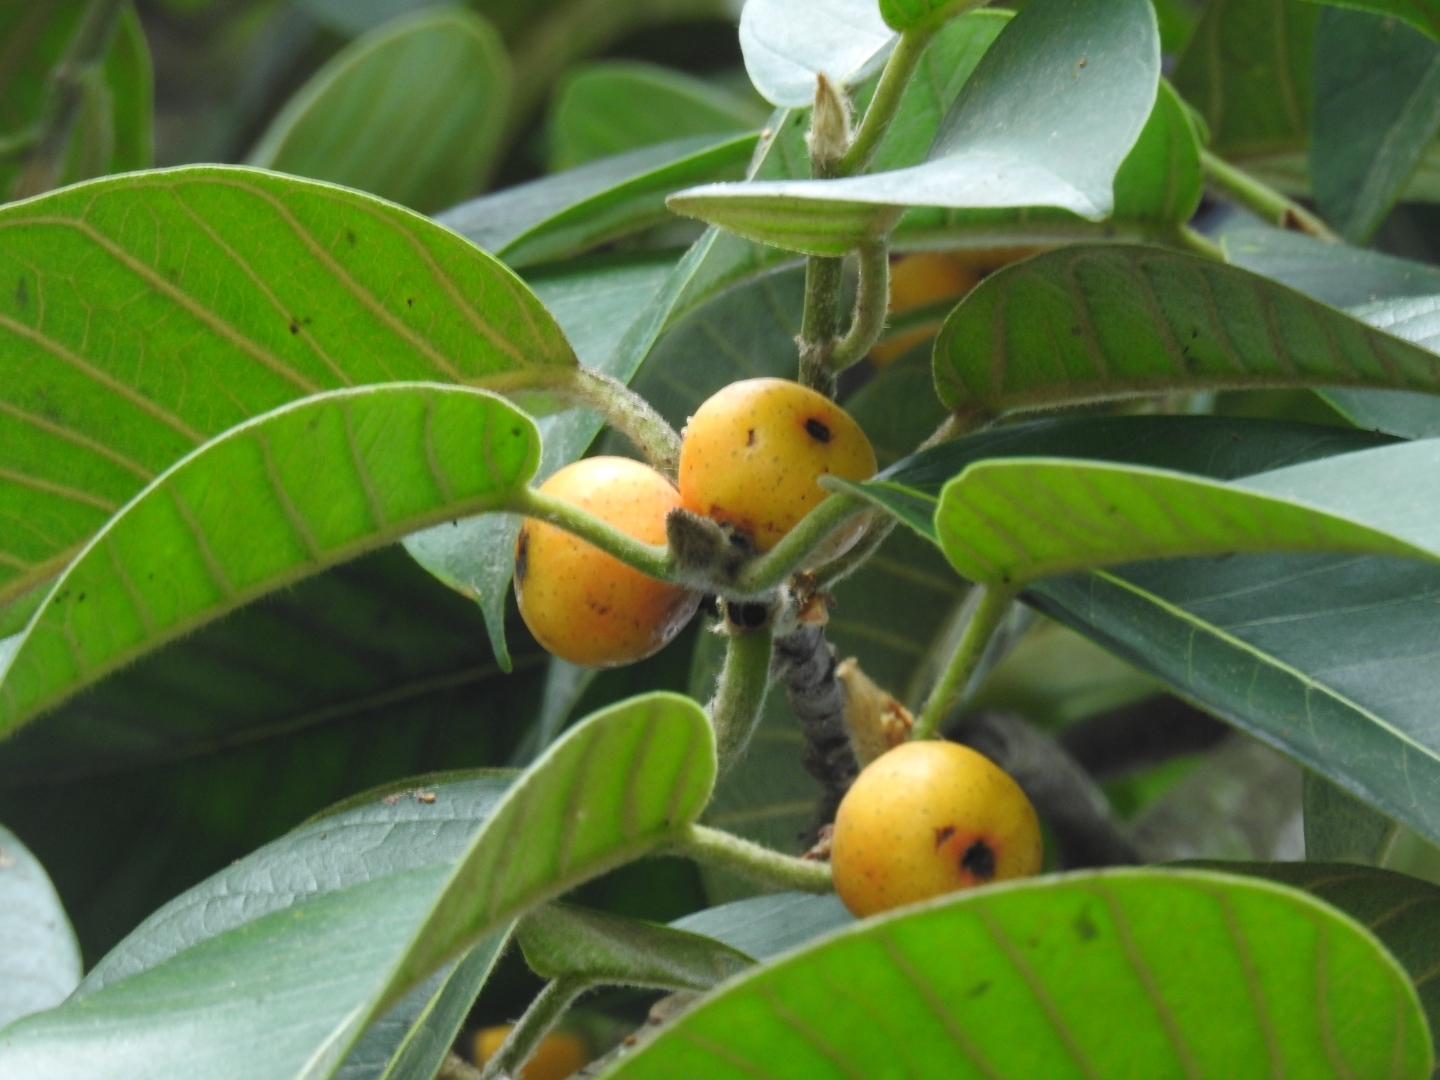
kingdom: Plantae
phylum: Tracheophyta
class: Magnoliopsida
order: Rosales
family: Moraceae
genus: Ficus
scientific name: Ficus drupacea
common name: Drupe fig
